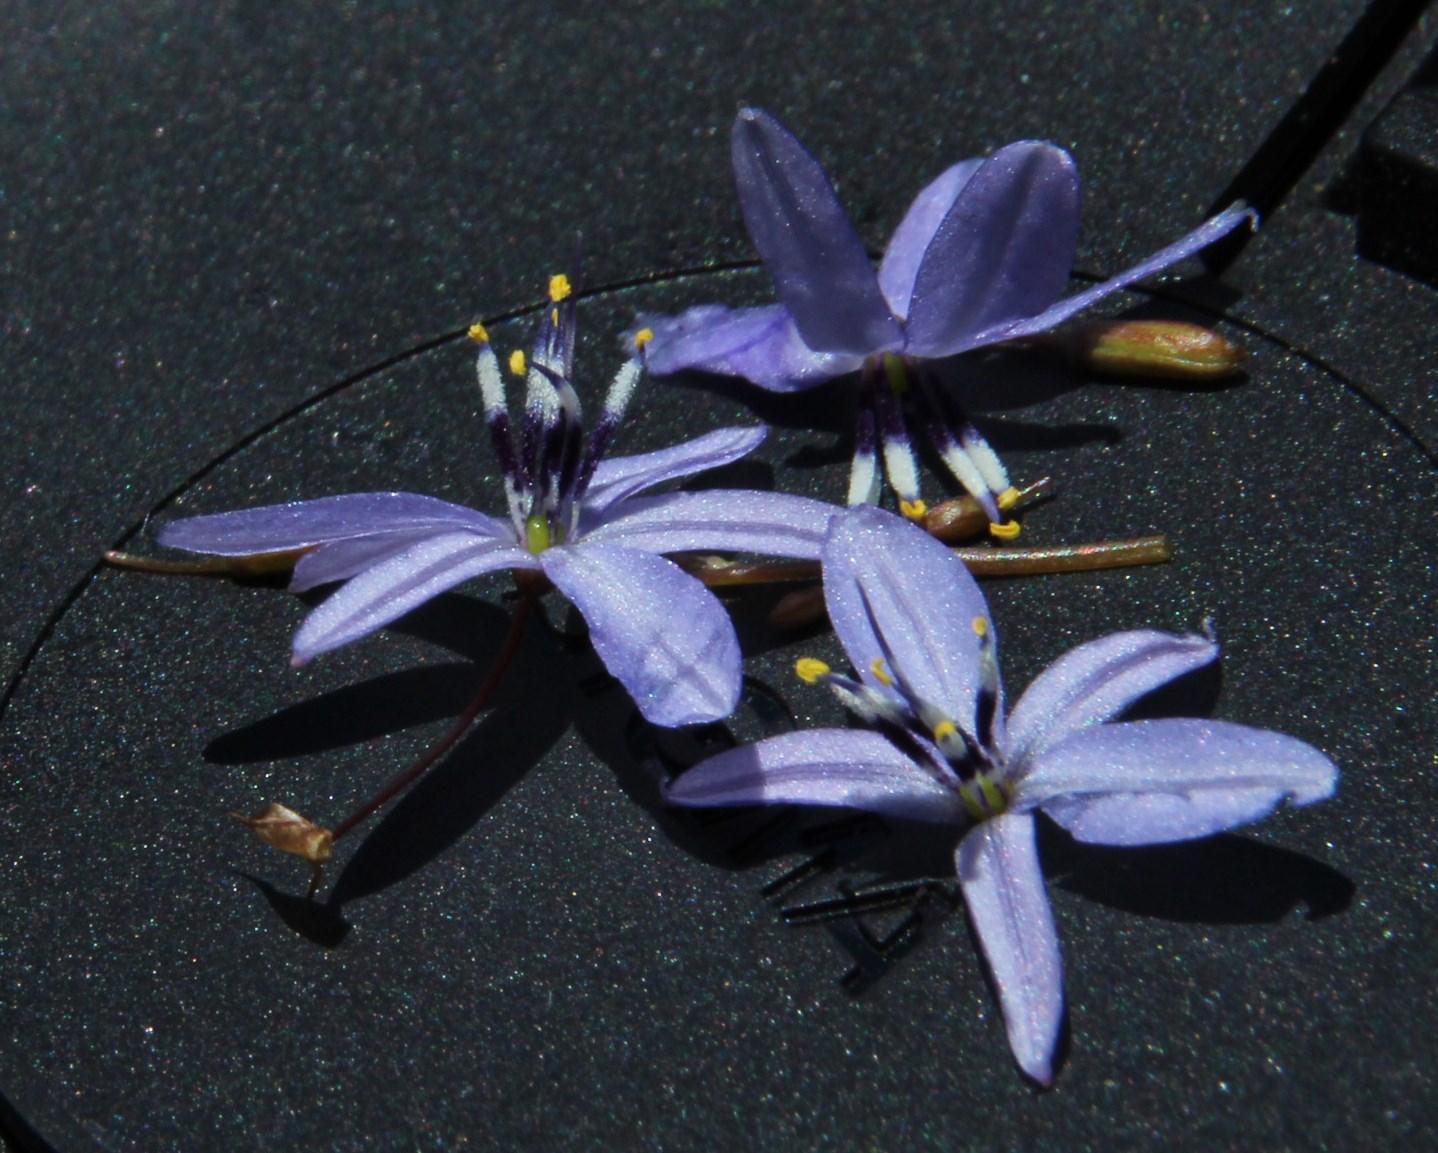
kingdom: Plantae
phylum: Tracheophyta
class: Liliopsida
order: Asparagales
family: Asphodelaceae
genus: Caesia
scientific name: Caesia contorta
